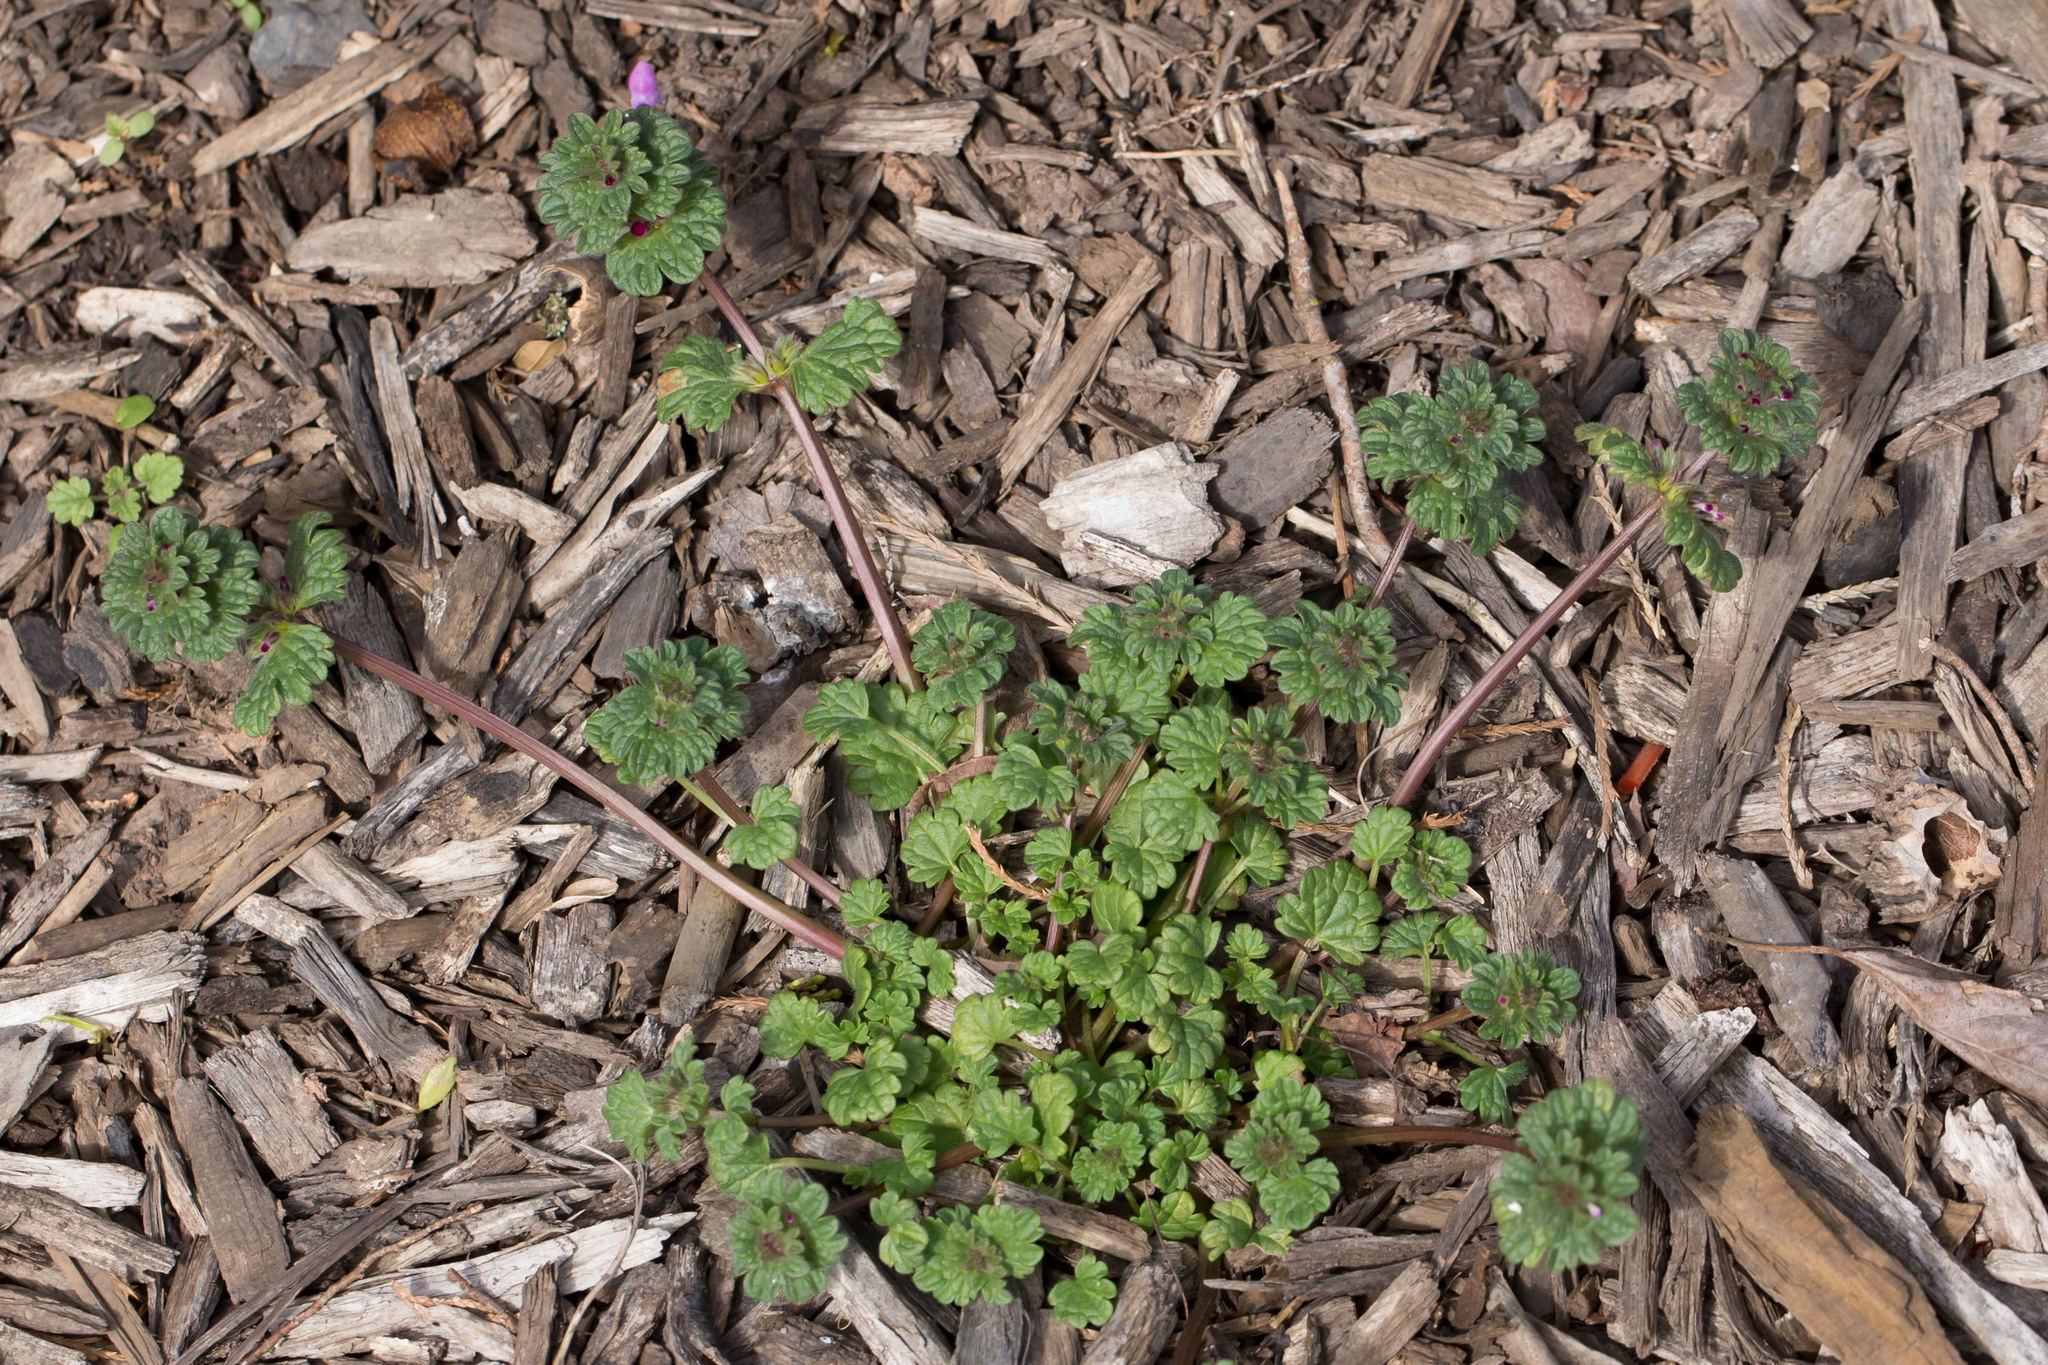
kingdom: Plantae
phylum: Tracheophyta
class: Magnoliopsida
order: Lamiales
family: Lamiaceae
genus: Lamium
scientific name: Lamium amplexicaule
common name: Henbit dead-nettle
